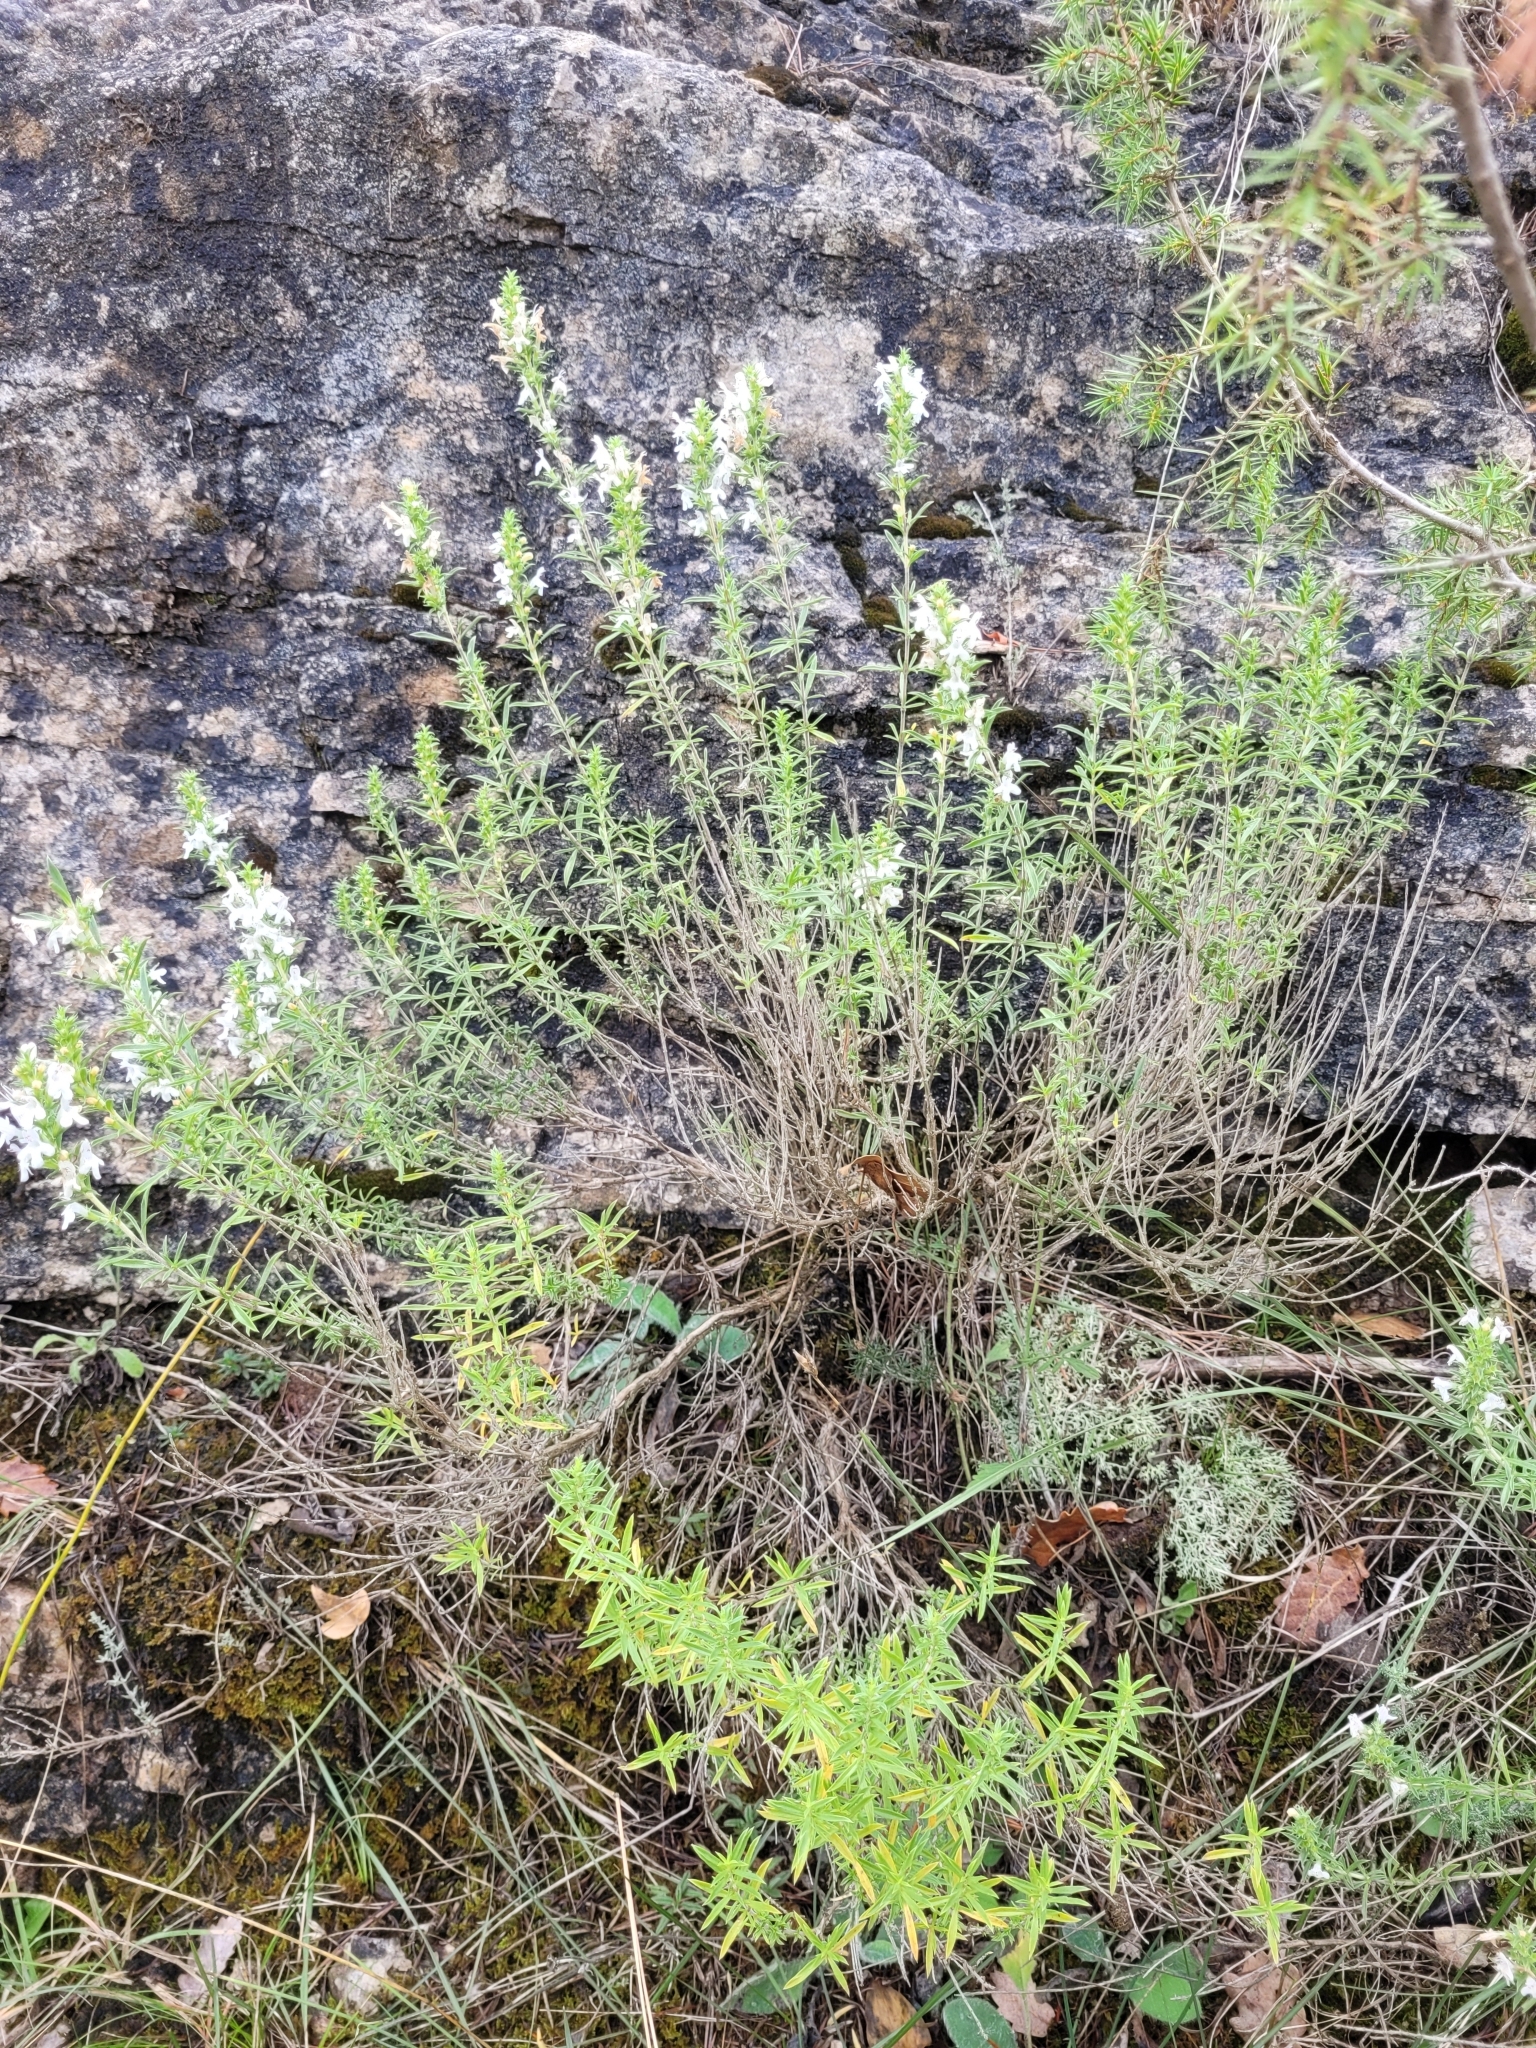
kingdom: Plantae
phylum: Tracheophyta
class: Magnoliopsida
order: Lamiales
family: Lamiaceae
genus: Satureja
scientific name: Satureja montana
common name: Winter savory
